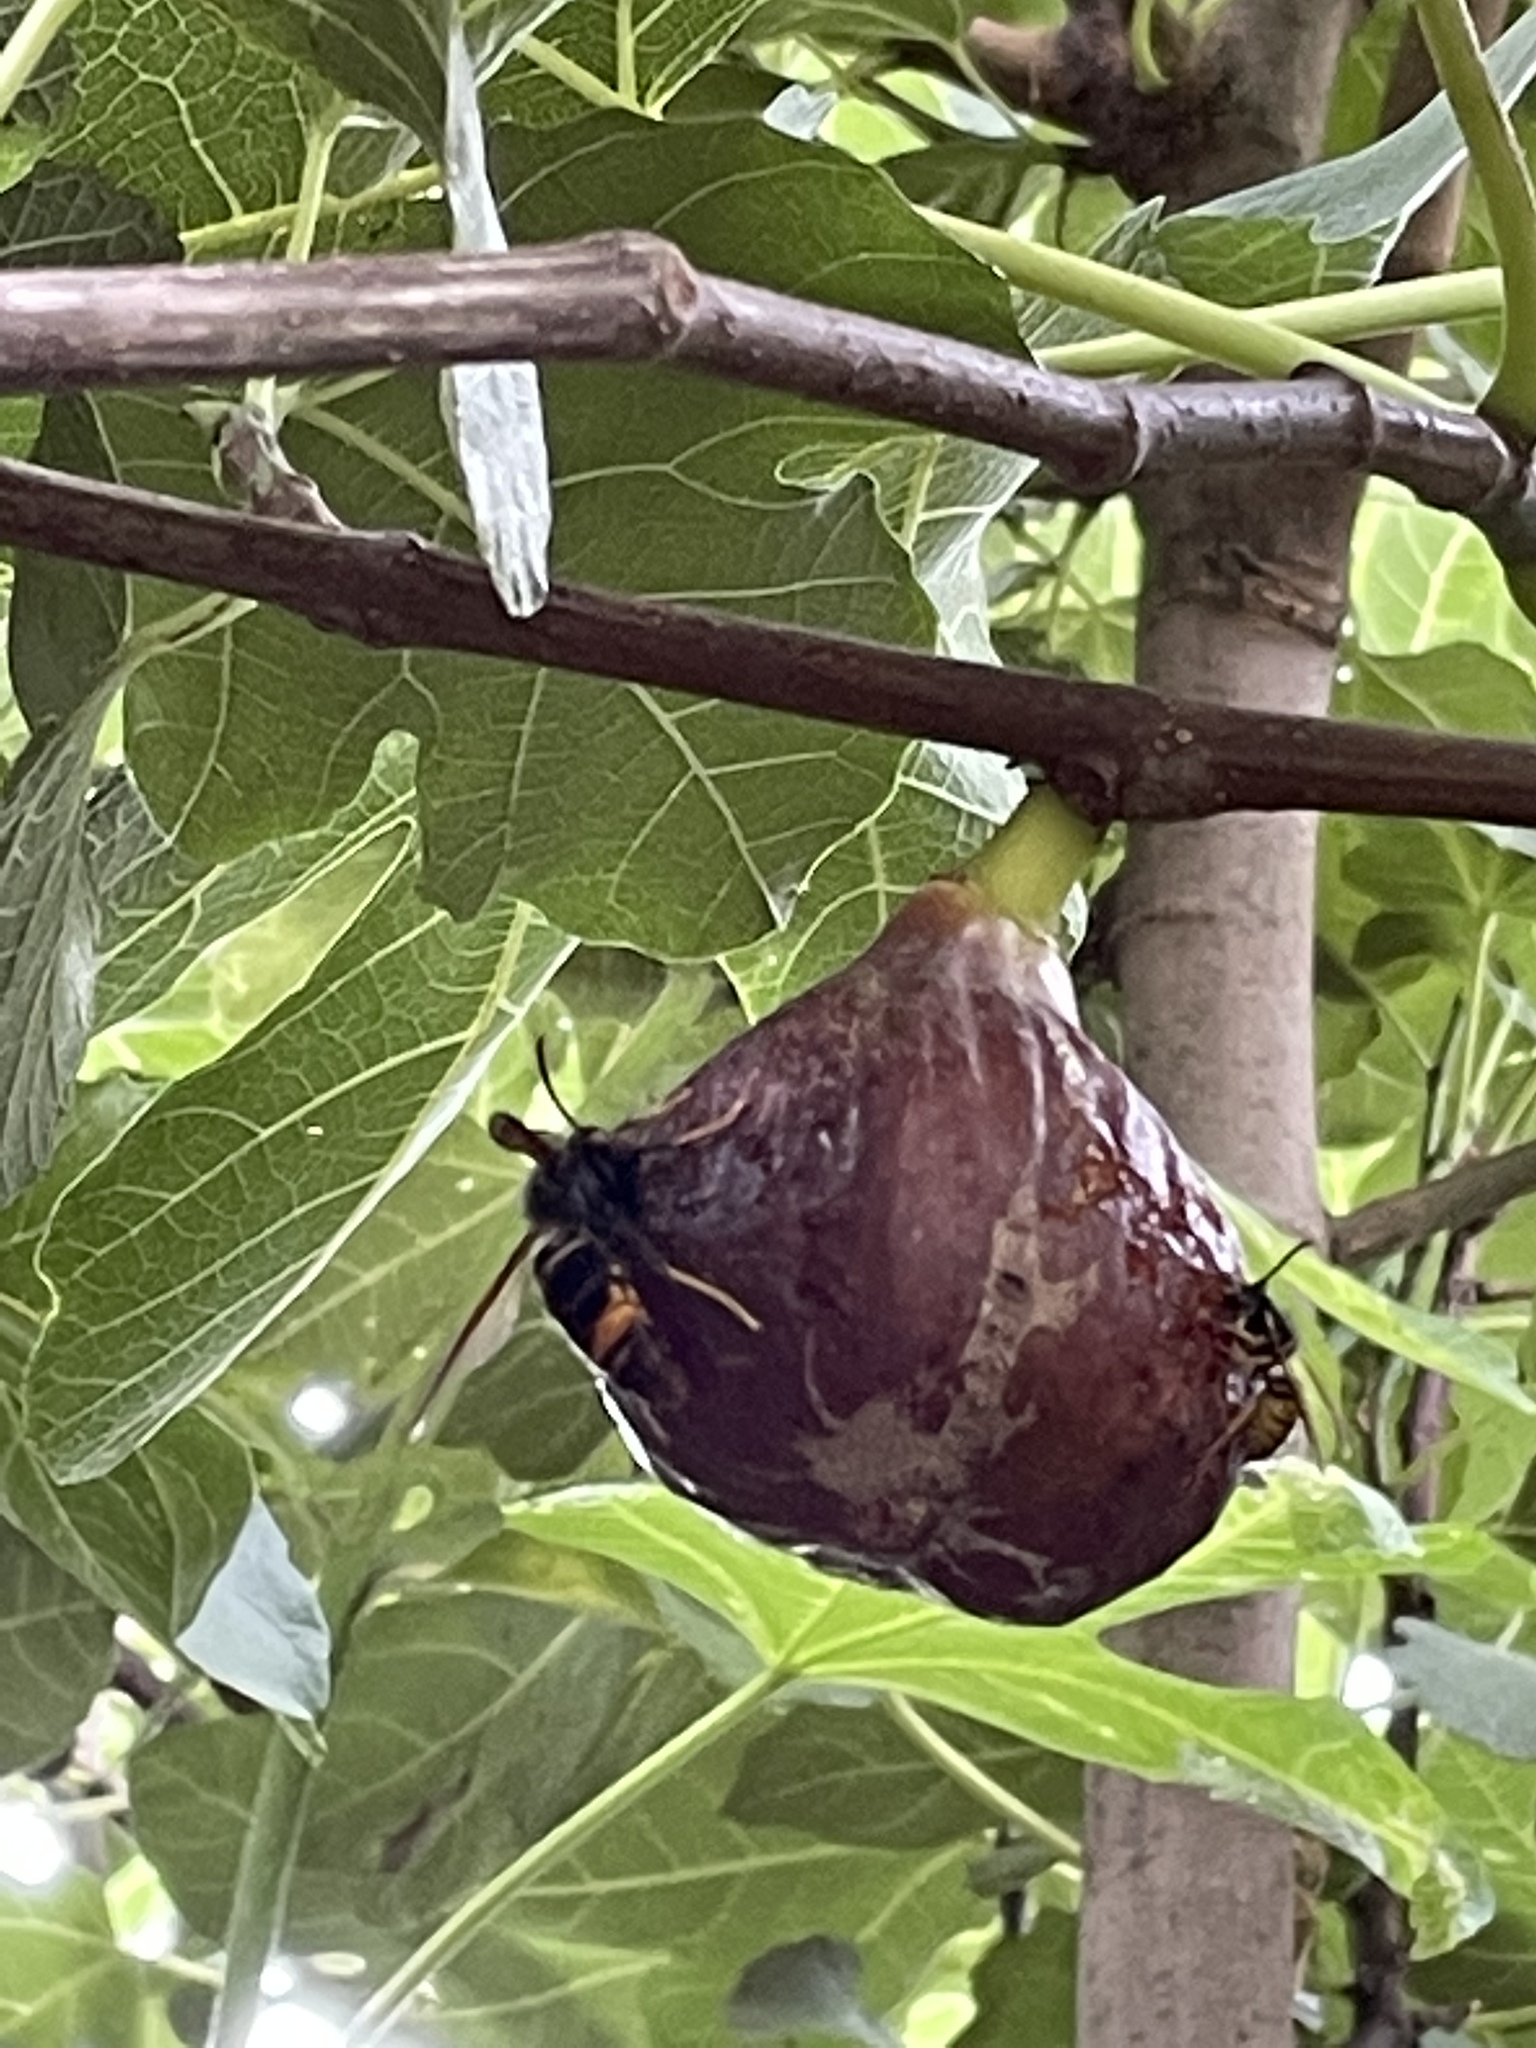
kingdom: Animalia
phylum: Arthropoda
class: Insecta
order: Hymenoptera
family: Vespidae
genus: Vespa
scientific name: Vespa velutina
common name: Asian hornet
